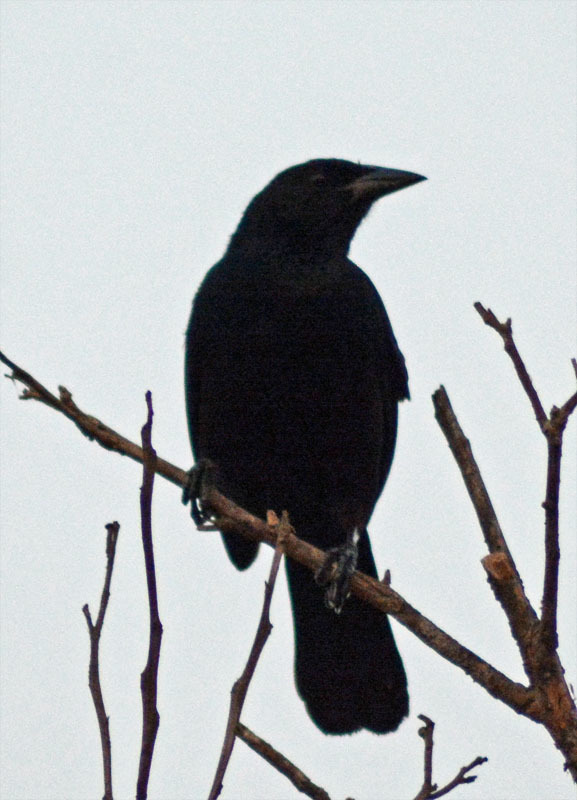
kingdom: Animalia
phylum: Chordata
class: Aves
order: Passeriformes
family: Icteridae
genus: Dives
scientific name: Dives dives
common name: Melodious blackbird
